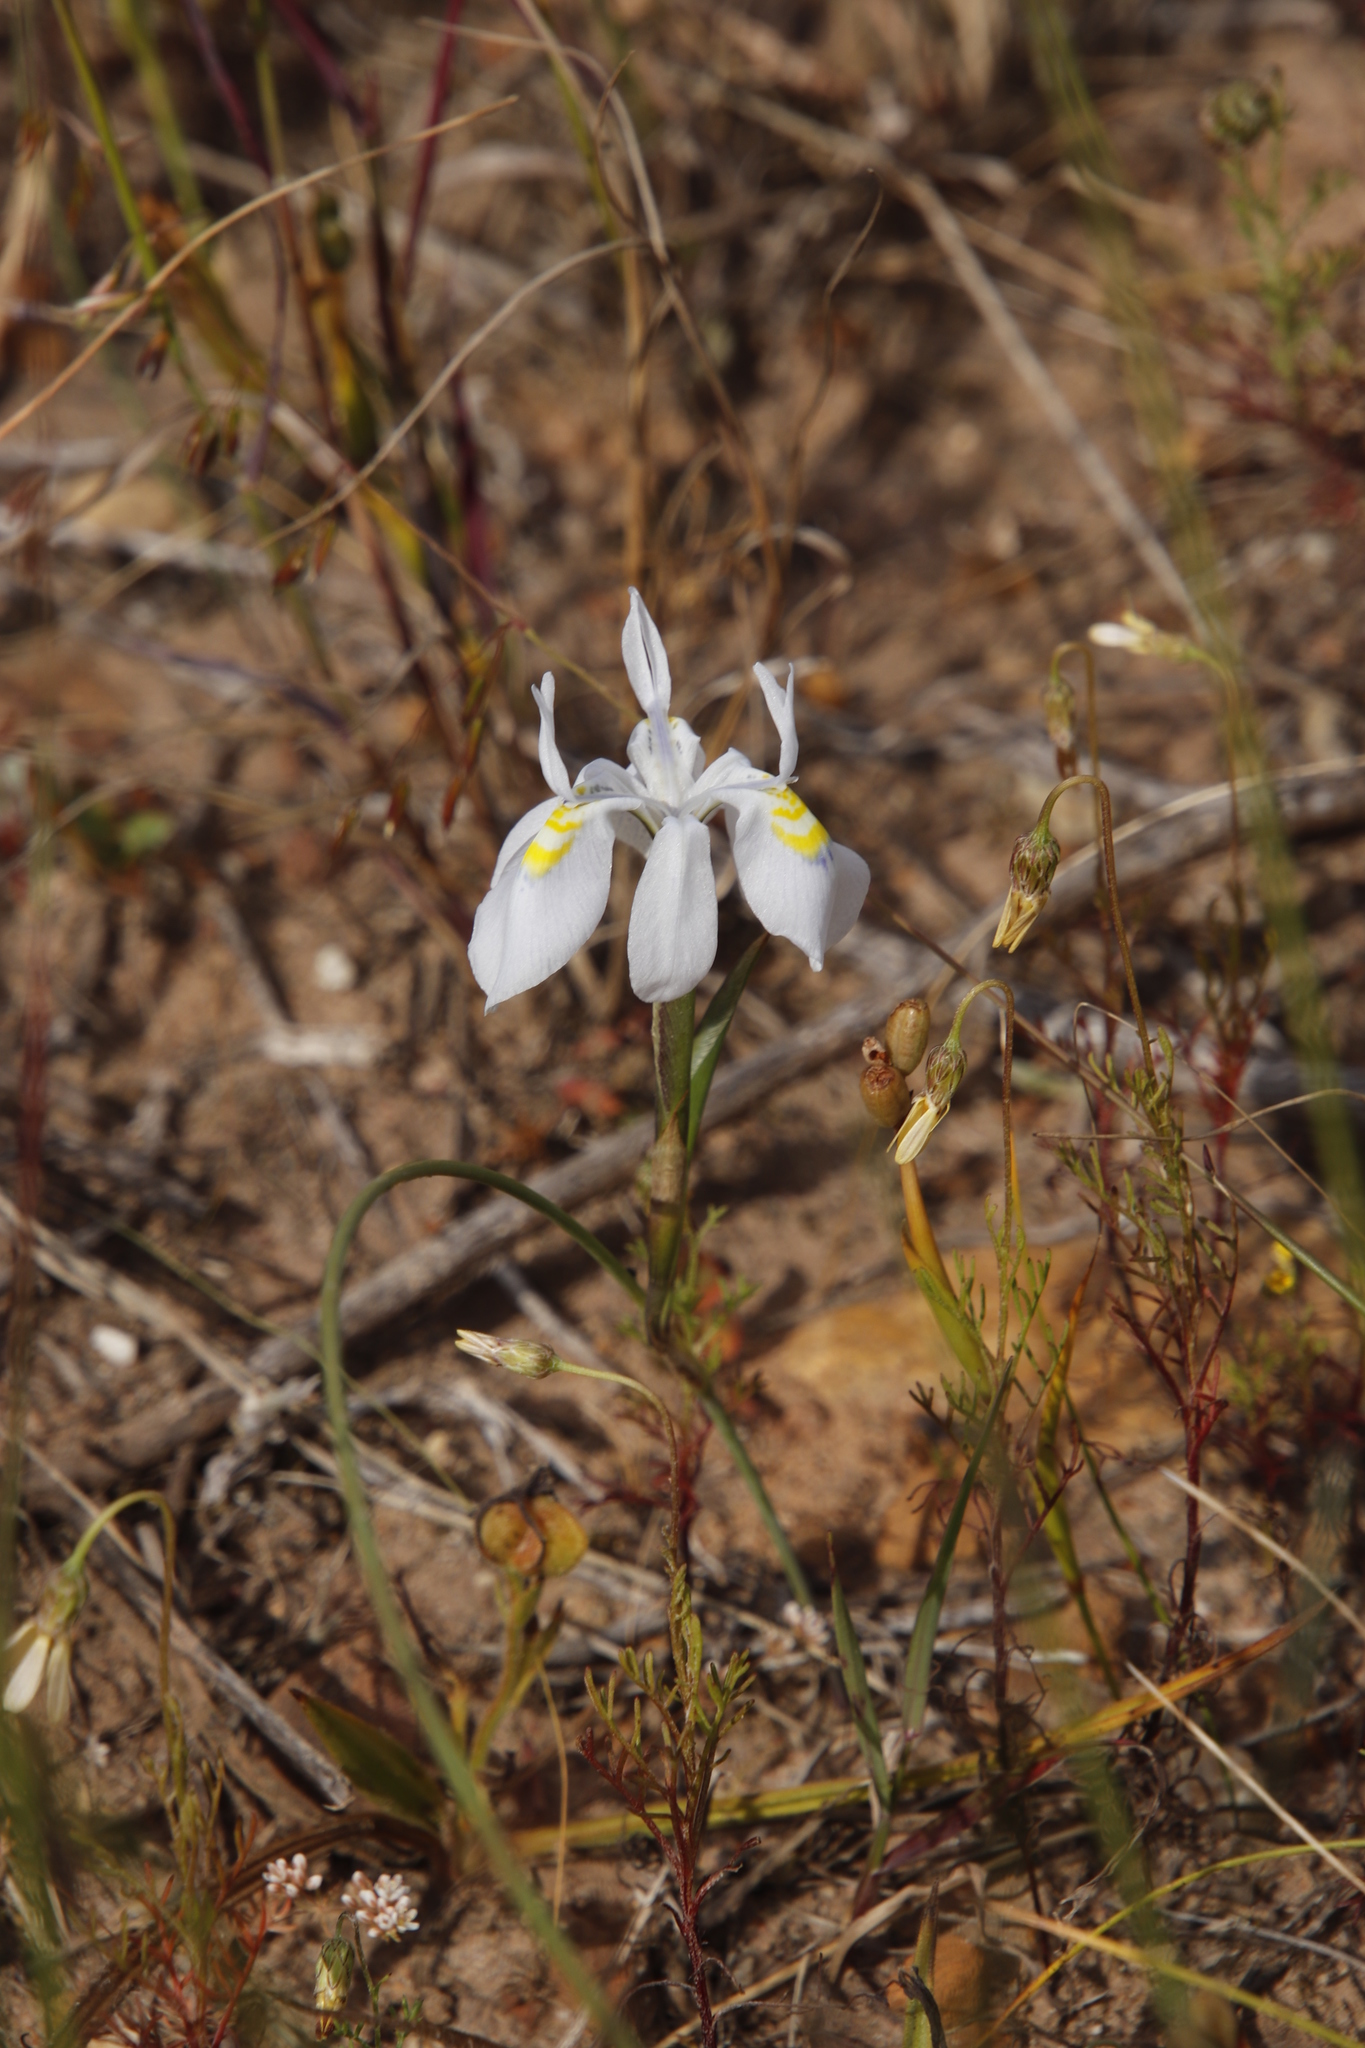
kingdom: Plantae
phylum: Tracheophyta
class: Liliopsida
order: Asparagales
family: Iridaceae
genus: Moraea
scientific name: Moraea fugax
